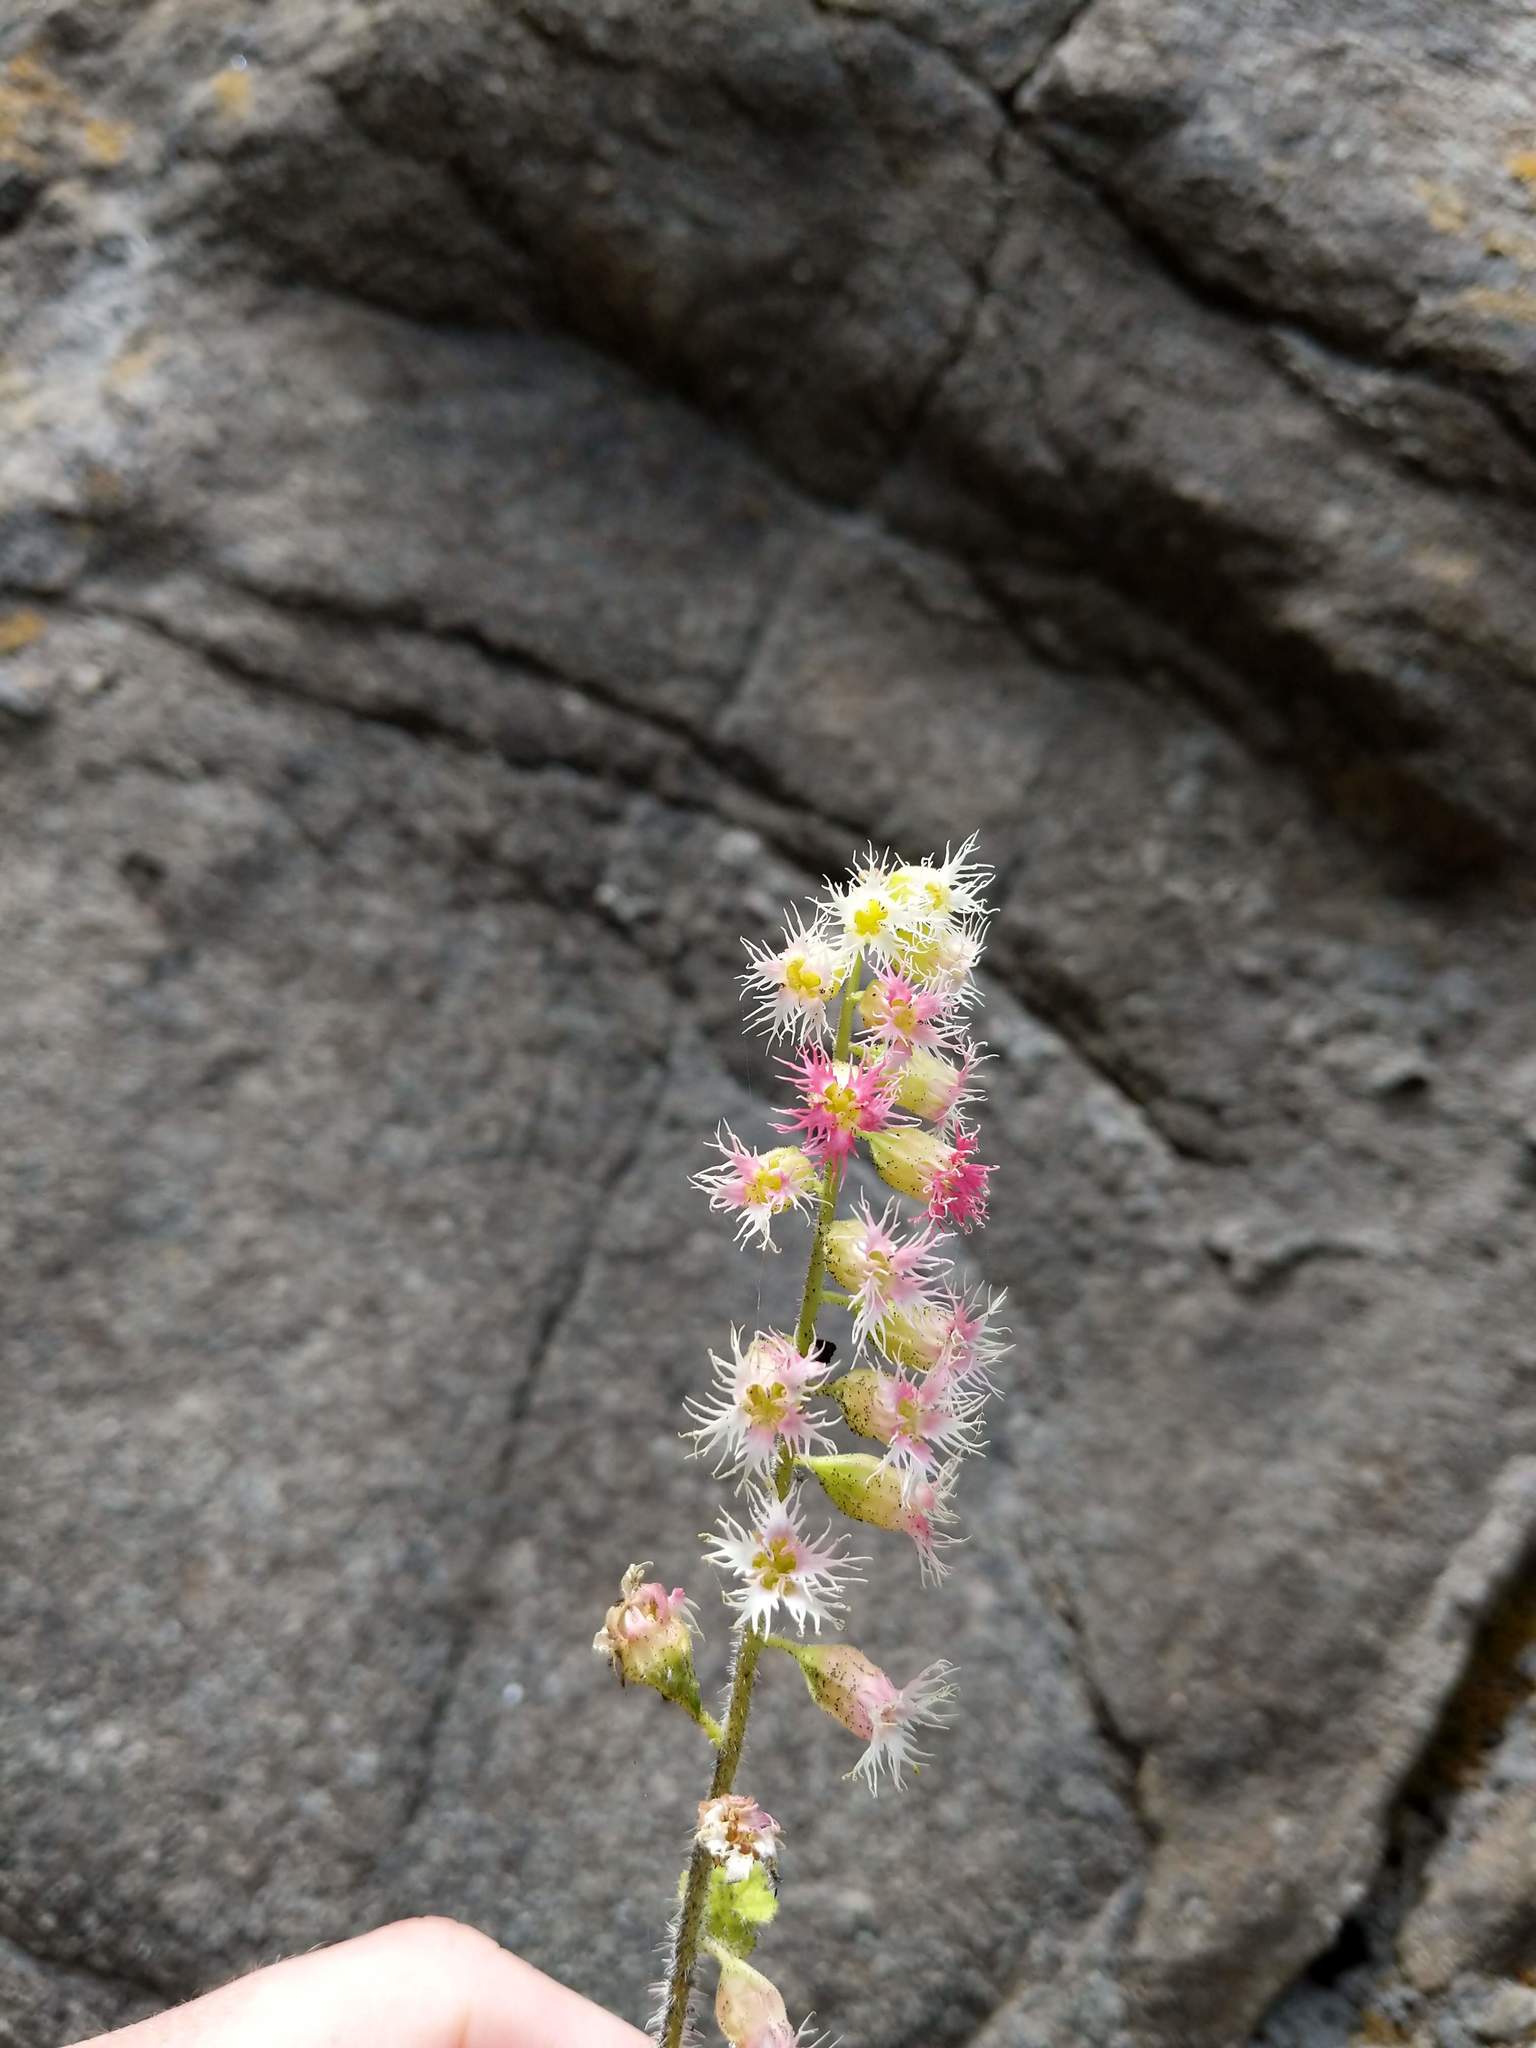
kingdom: Plantae
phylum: Tracheophyta
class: Magnoliopsida
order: Saxifragales
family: Saxifragaceae
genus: Tellima
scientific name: Tellima grandiflora
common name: Fringecups
